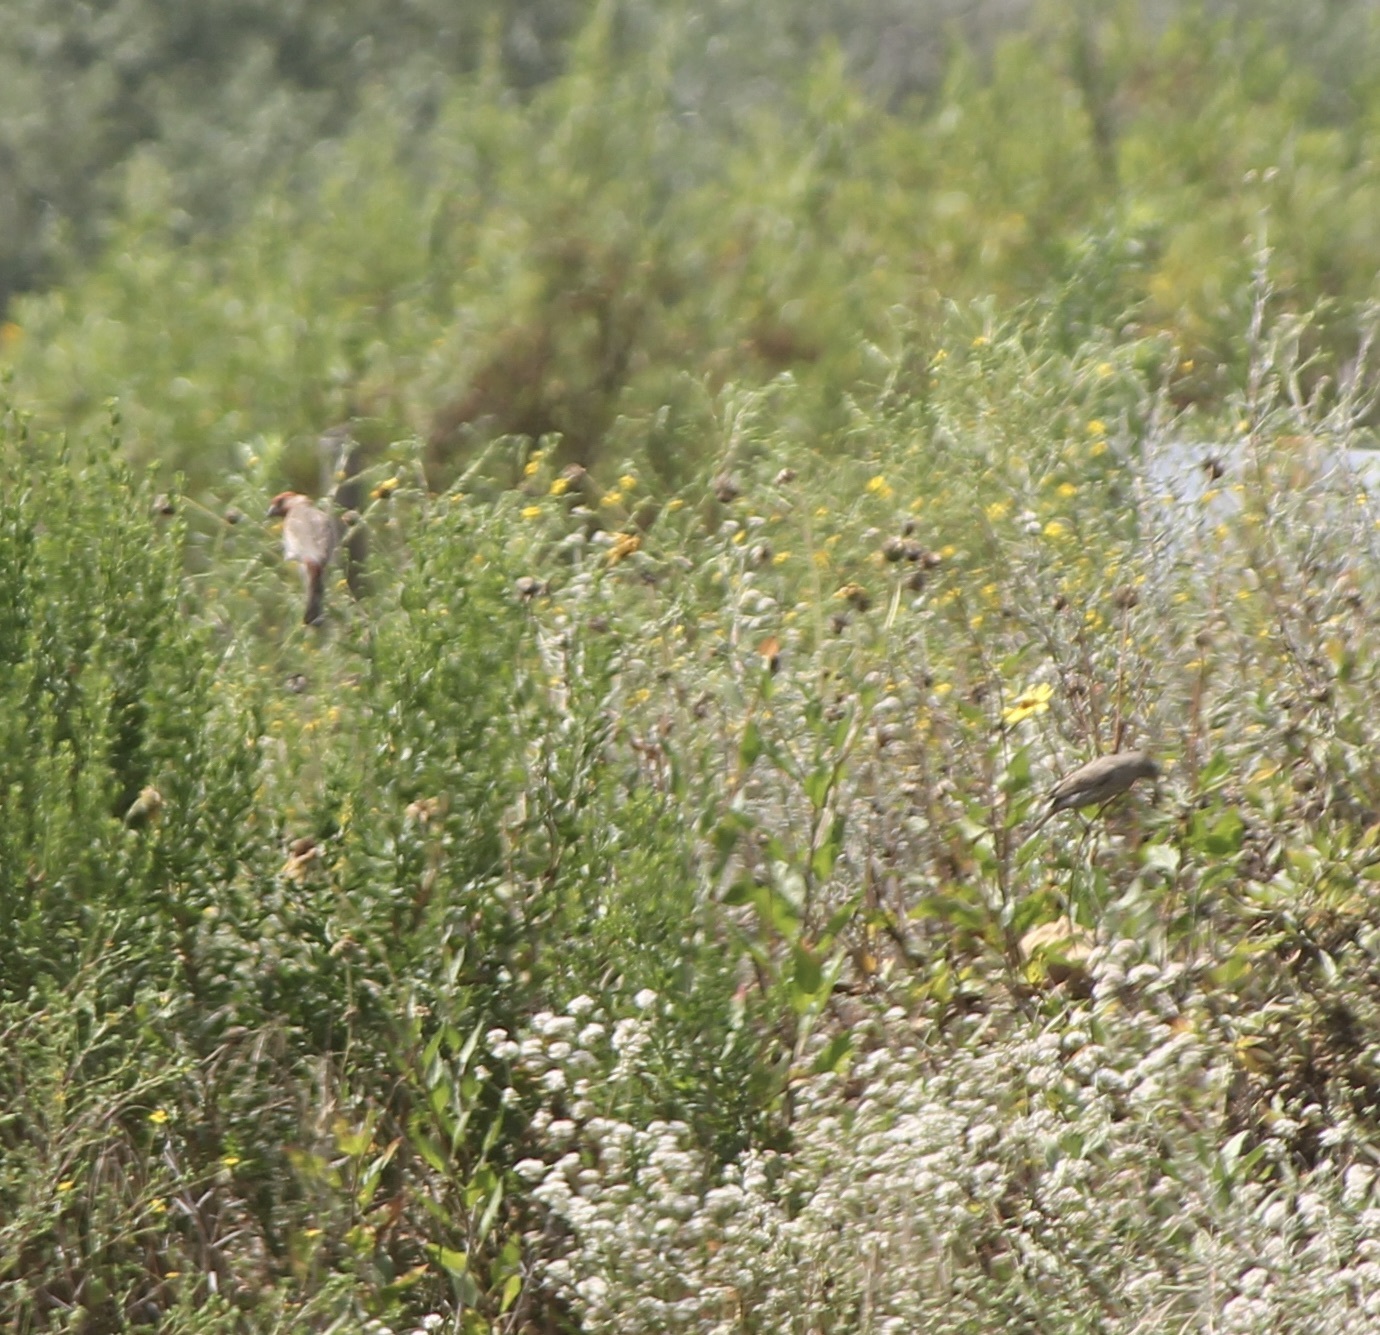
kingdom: Animalia
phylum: Chordata
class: Aves
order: Passeriformes
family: Passerellidae
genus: Melozone
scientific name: Melozone crissalis
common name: California towhee
